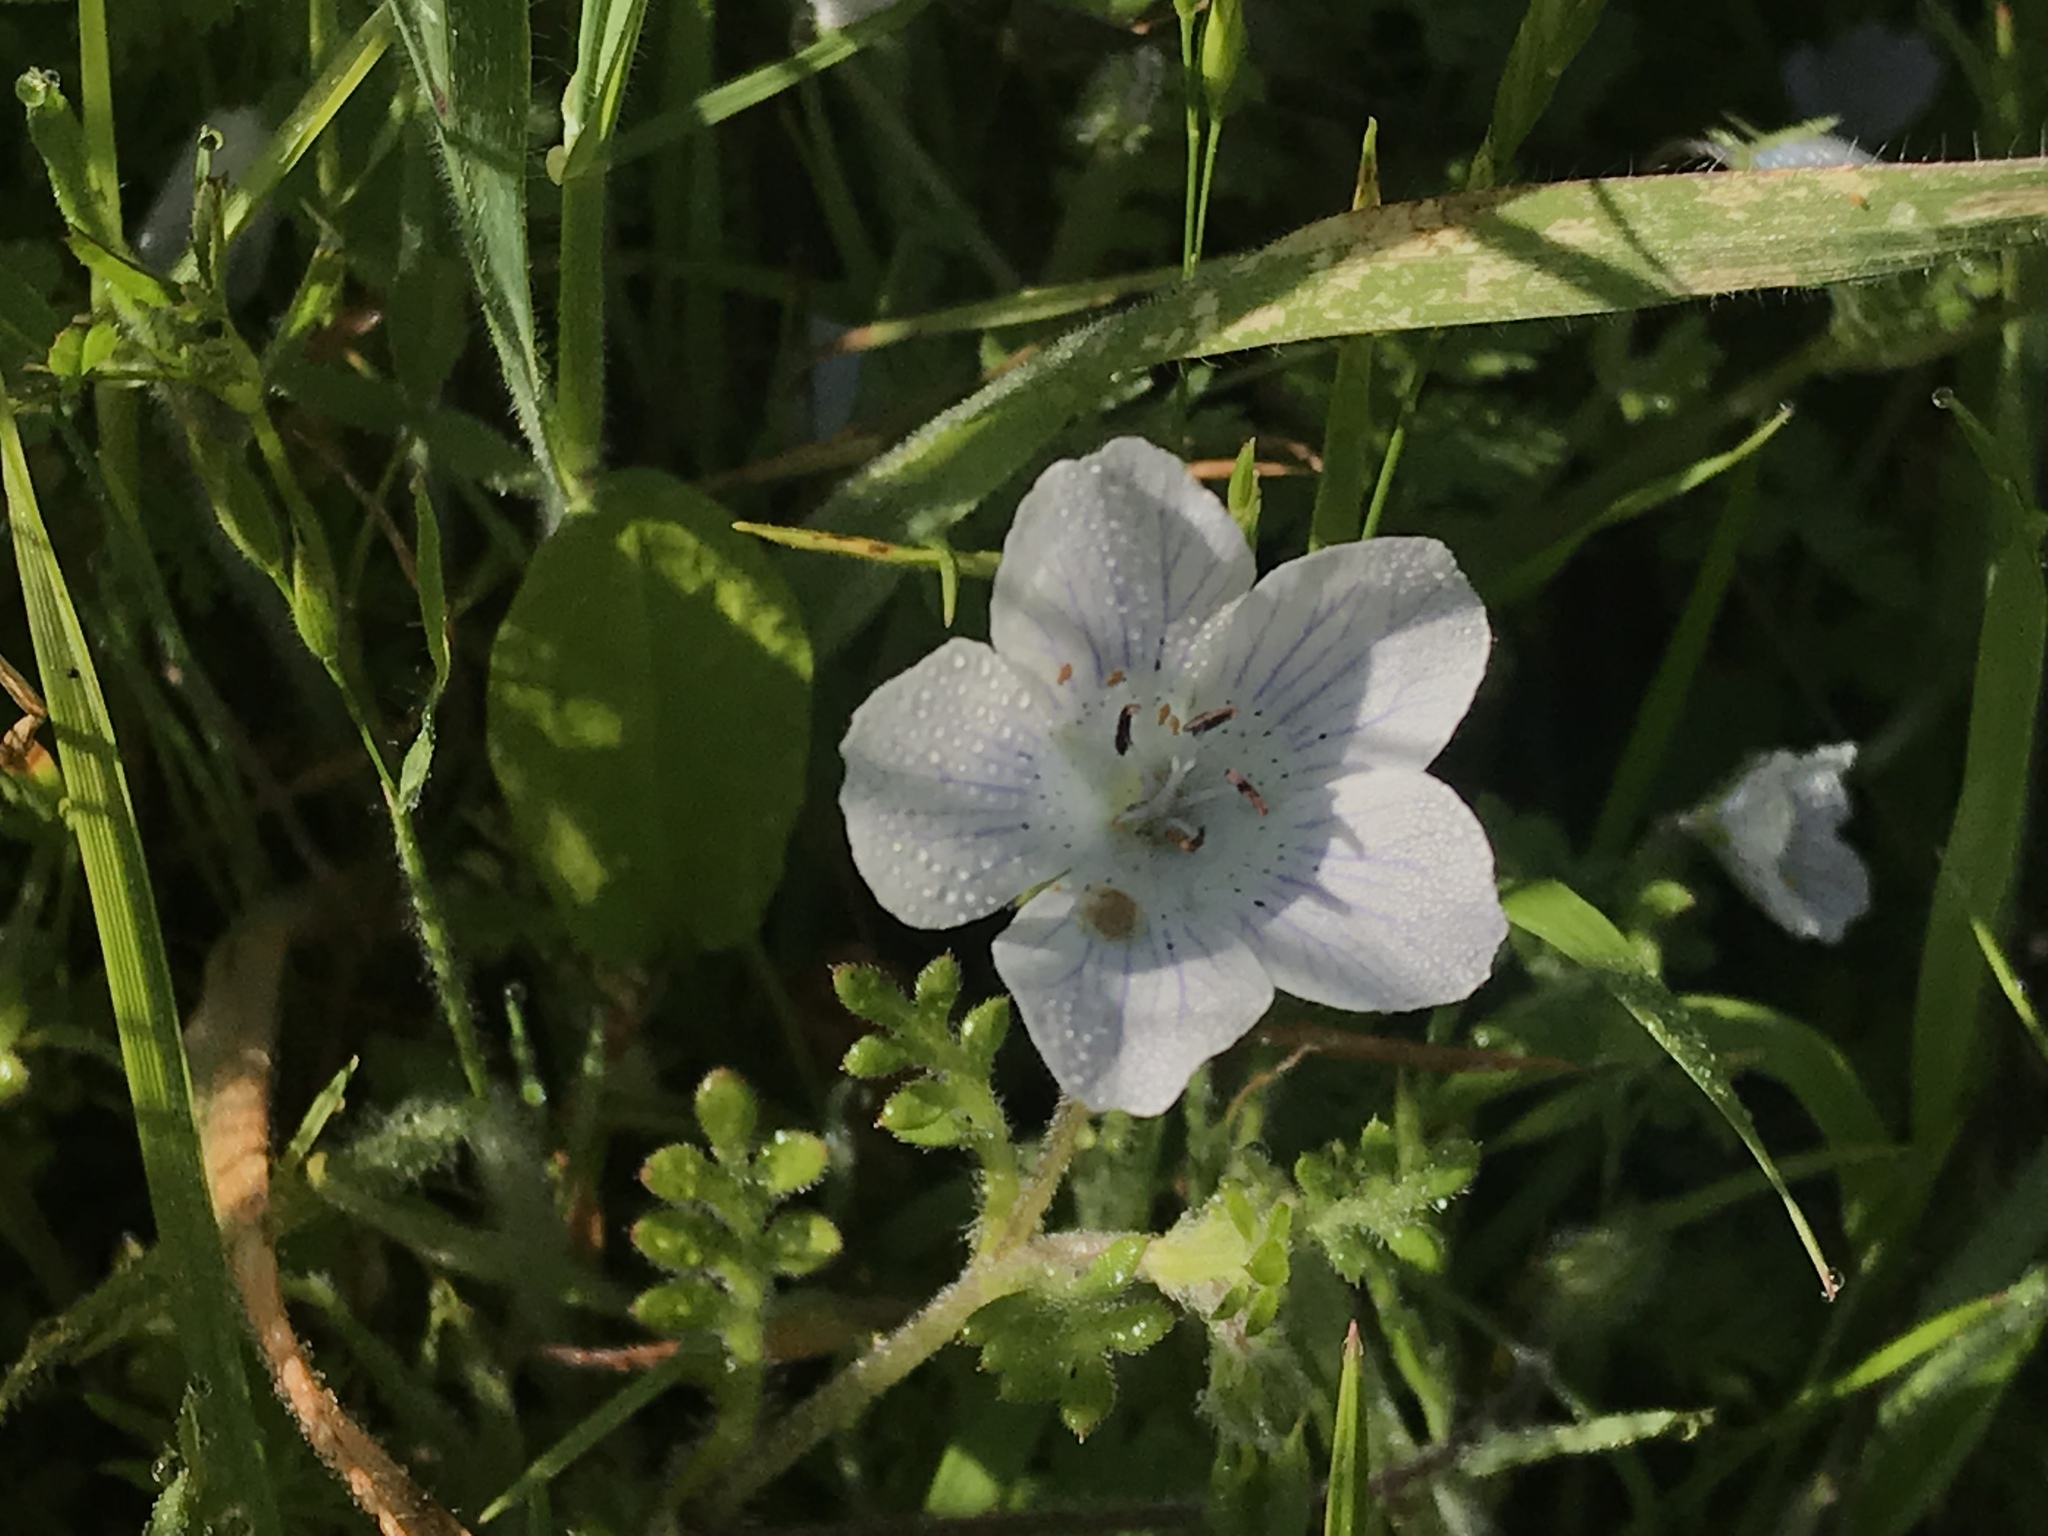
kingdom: Plantae
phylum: Tracheophyta
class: Magnoliopsida
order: Boraginales
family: Hydrophyllaceae
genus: Nemophila
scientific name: Nemophila menziesii
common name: Baby's-blue-eyes
